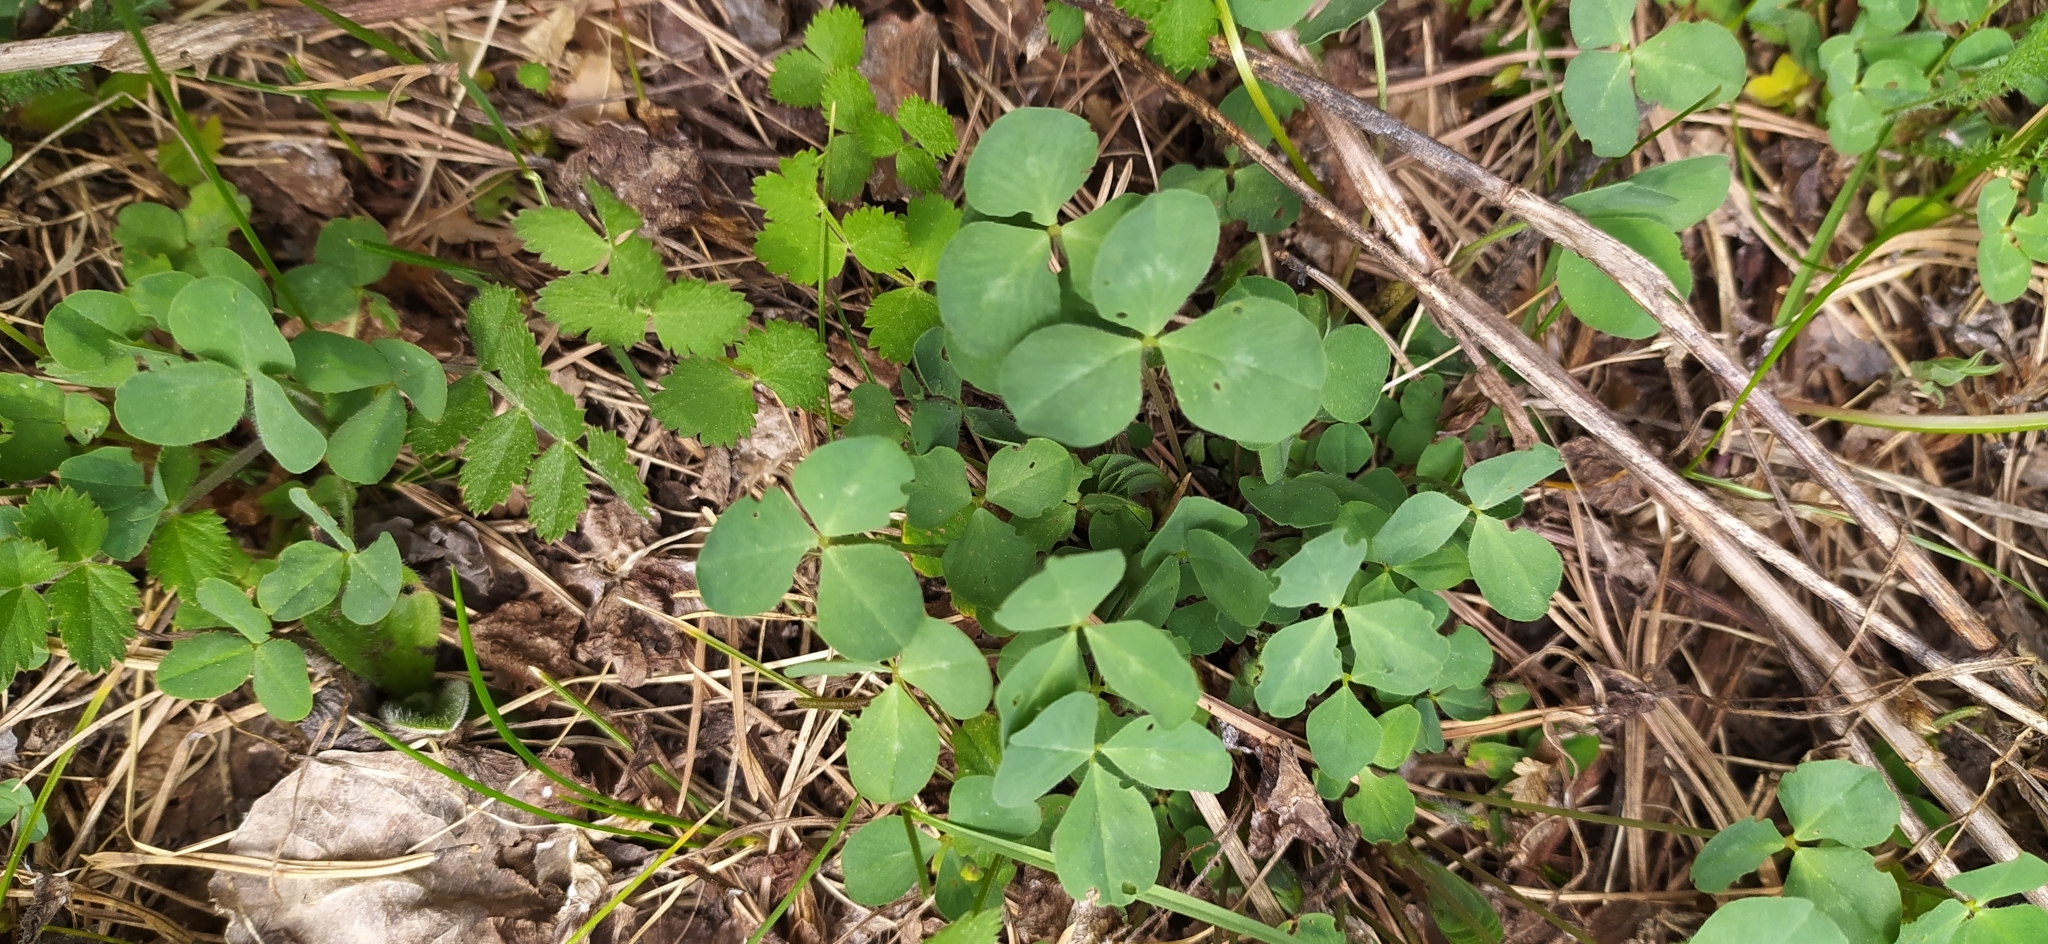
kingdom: Plantae
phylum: Tracheophyta
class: Magnoliopsida
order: Fabales
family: Fabaceae
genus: Trifolium
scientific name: Trifolium repens
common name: White clover
